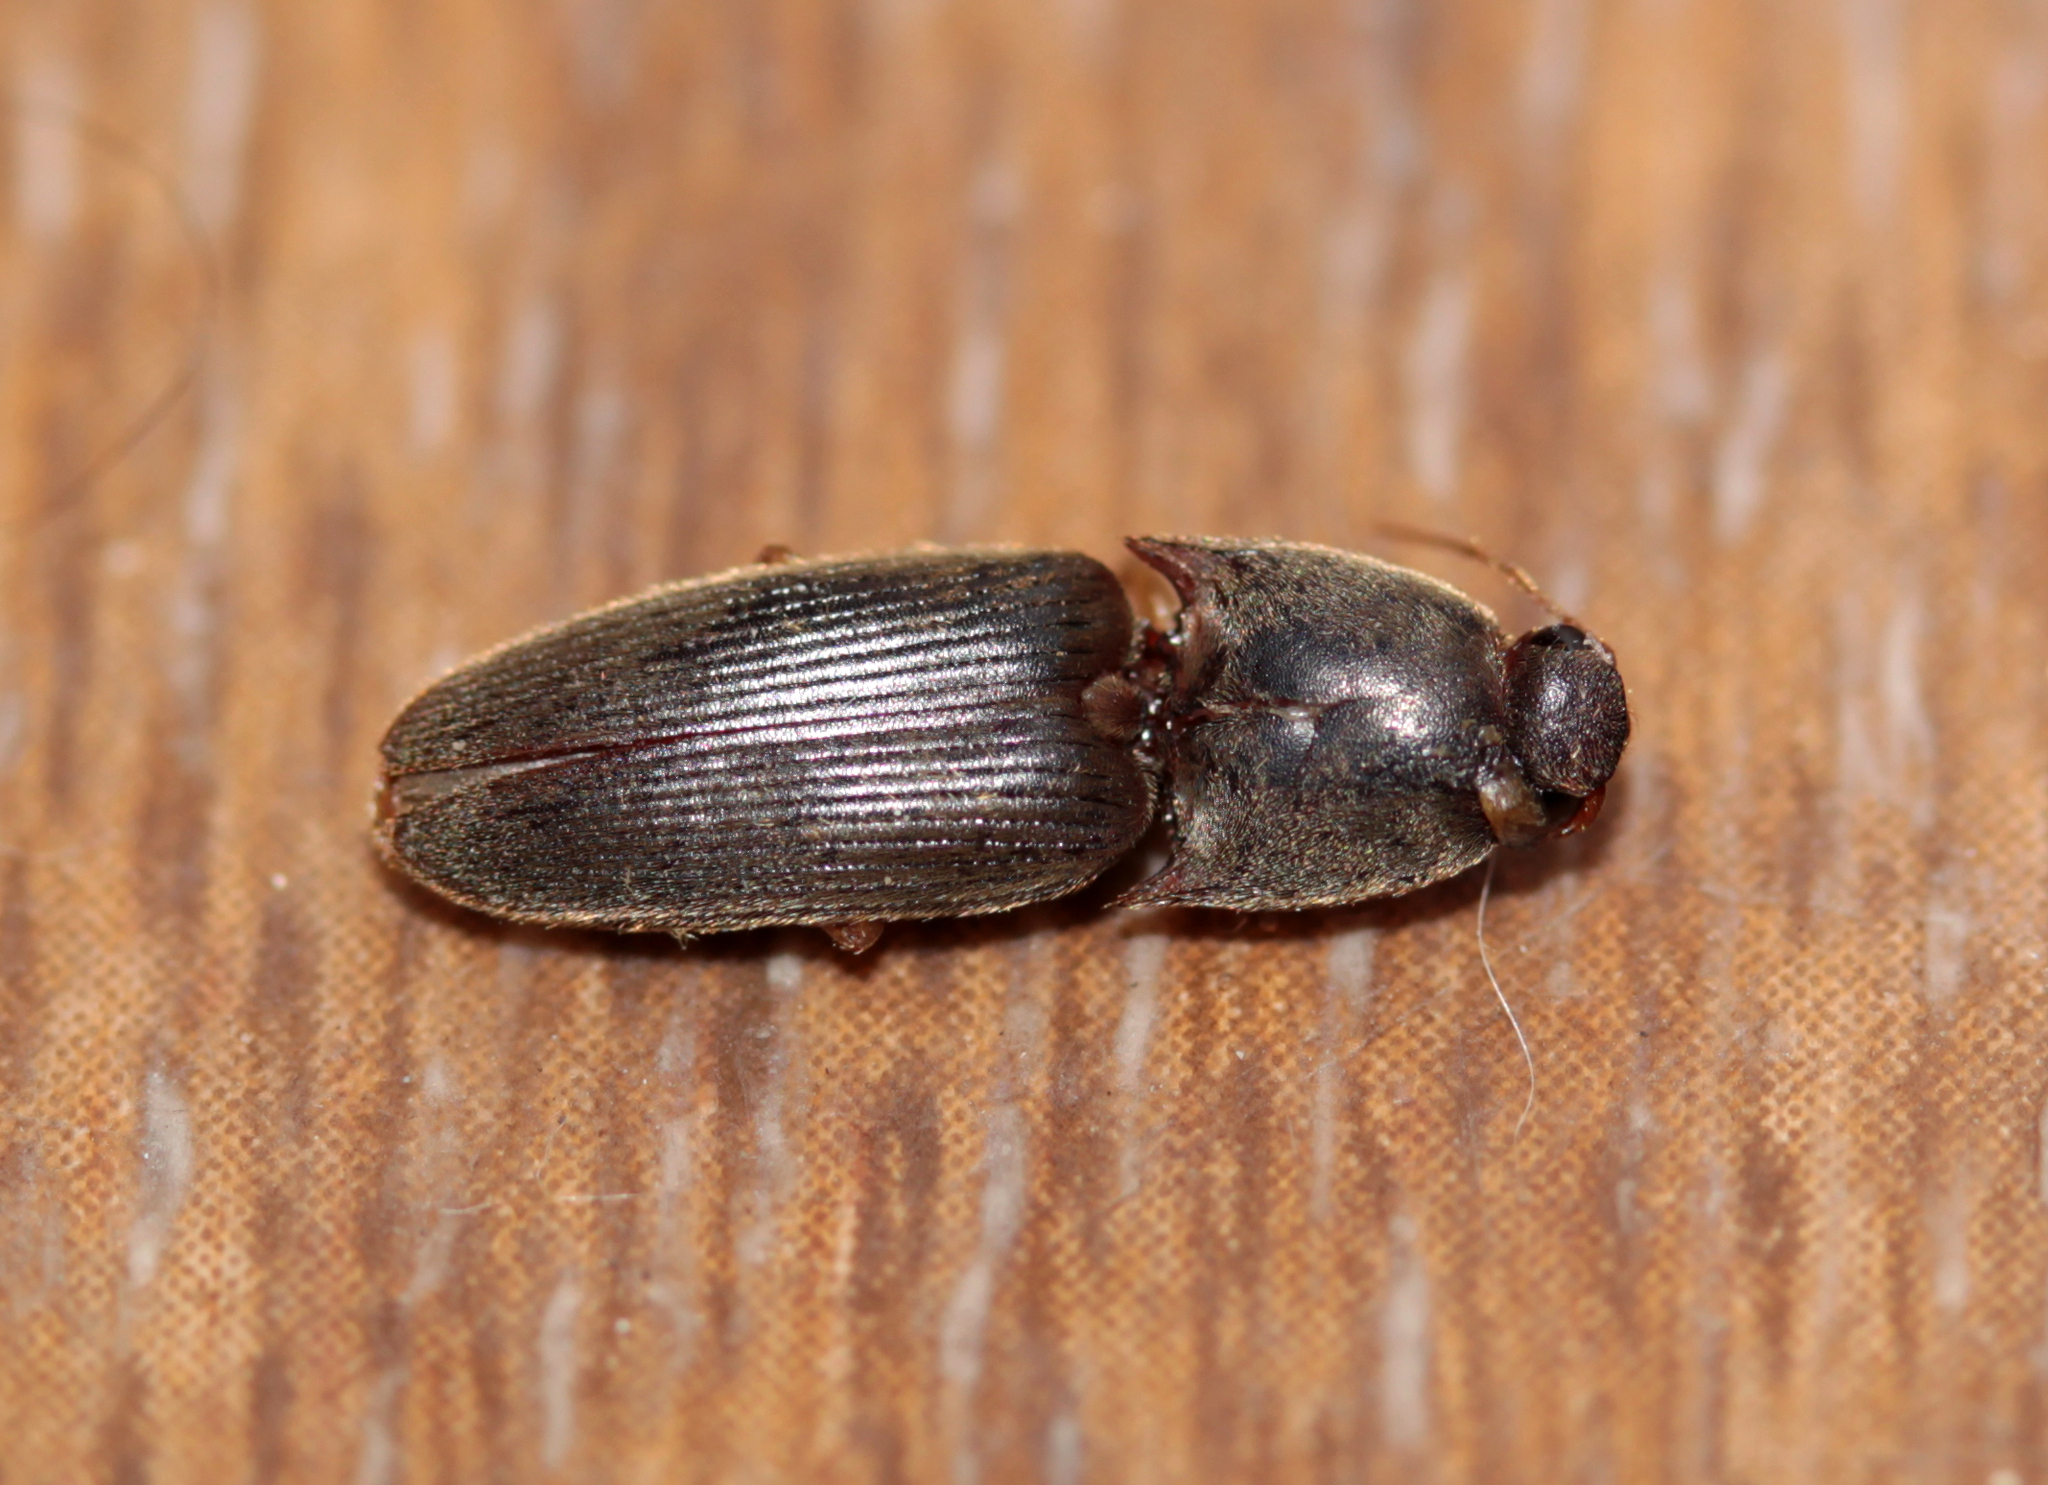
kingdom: Animalia
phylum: Arthropoda
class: Insecta
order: Coleoptera
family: Elateridae
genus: Conoderus
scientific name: Conoderus exsul
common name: Click beetle
